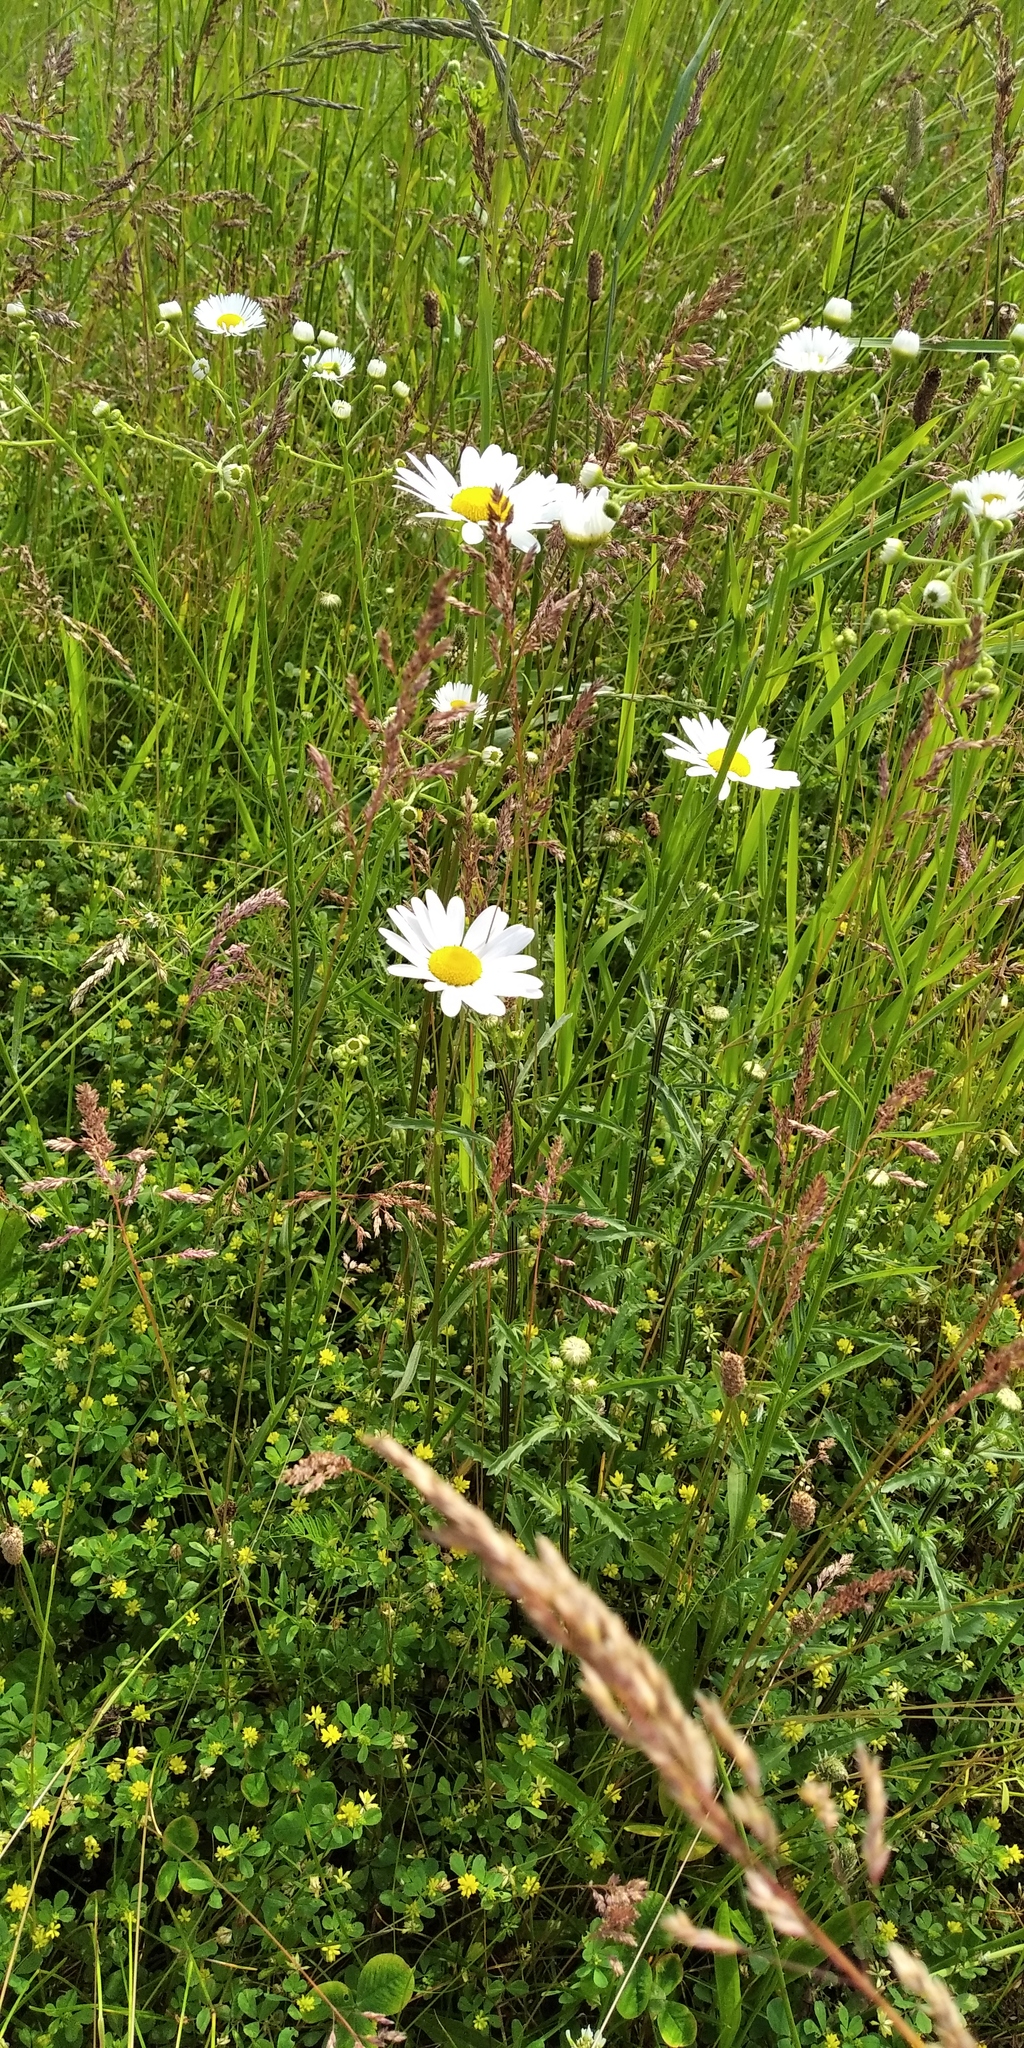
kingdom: Plantae
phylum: Tracheophyta
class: Magnoliopsida
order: Asterales
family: Asteraceae
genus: Leucanthemum
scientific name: Leucanthemum vulgare
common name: Oxeye daisy
